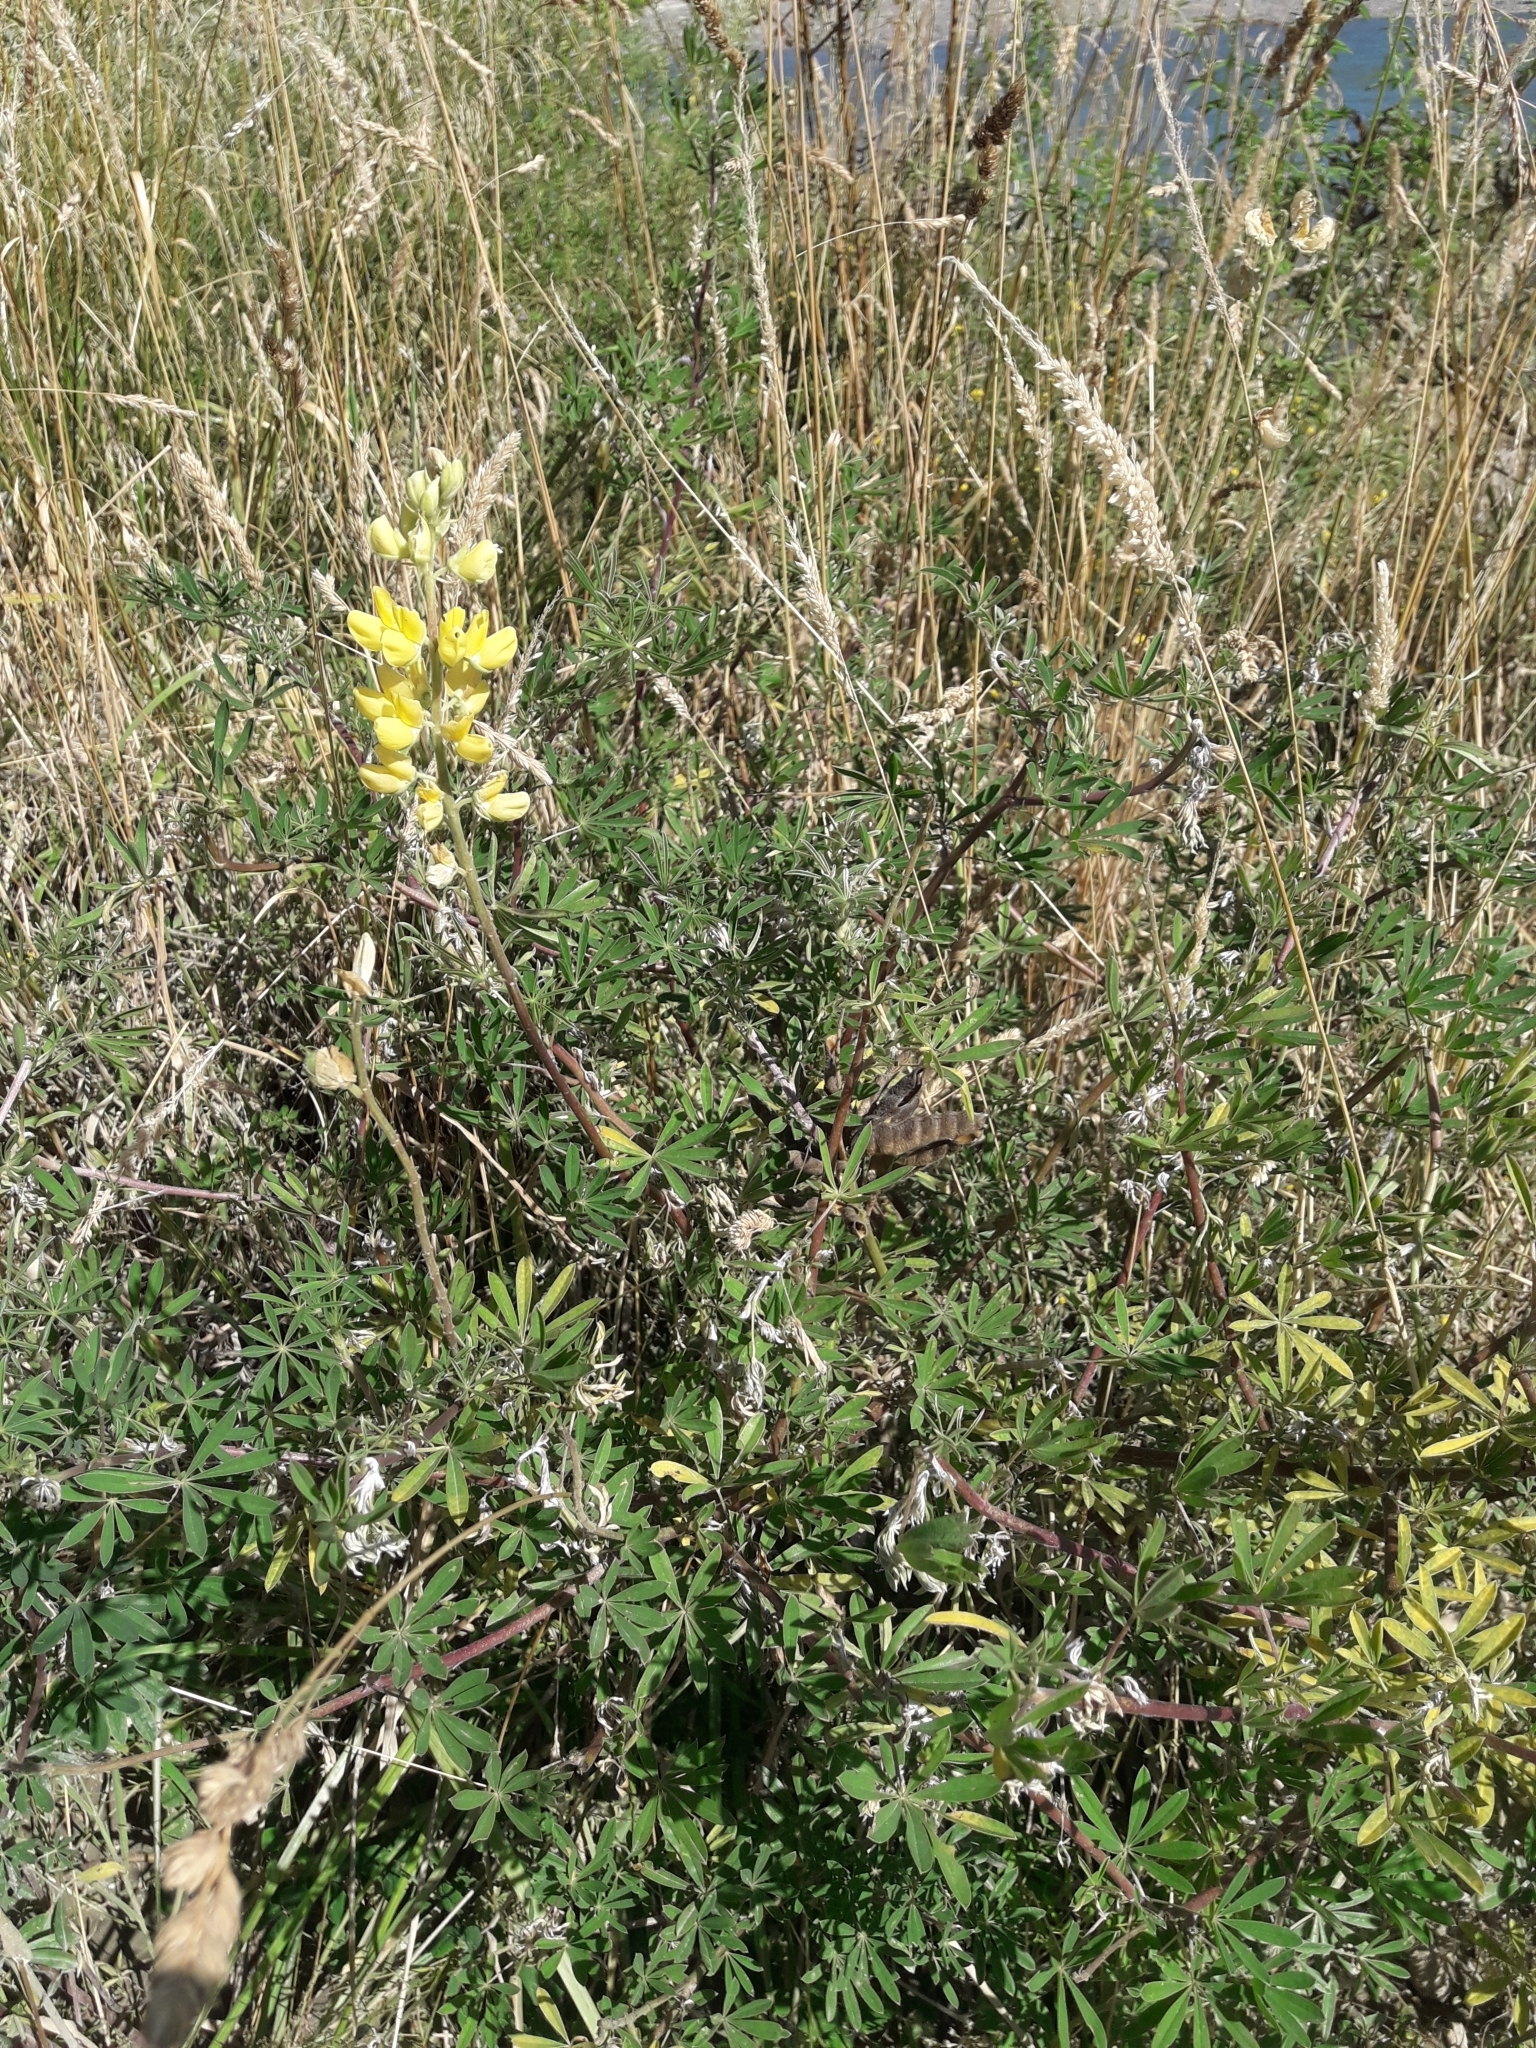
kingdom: Plantae
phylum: Tracheophyta
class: Magnoliopsida
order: Fabales
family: Fabaceae
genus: Lupinus
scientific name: Lupinus arboreus
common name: Yellow bush lupine
